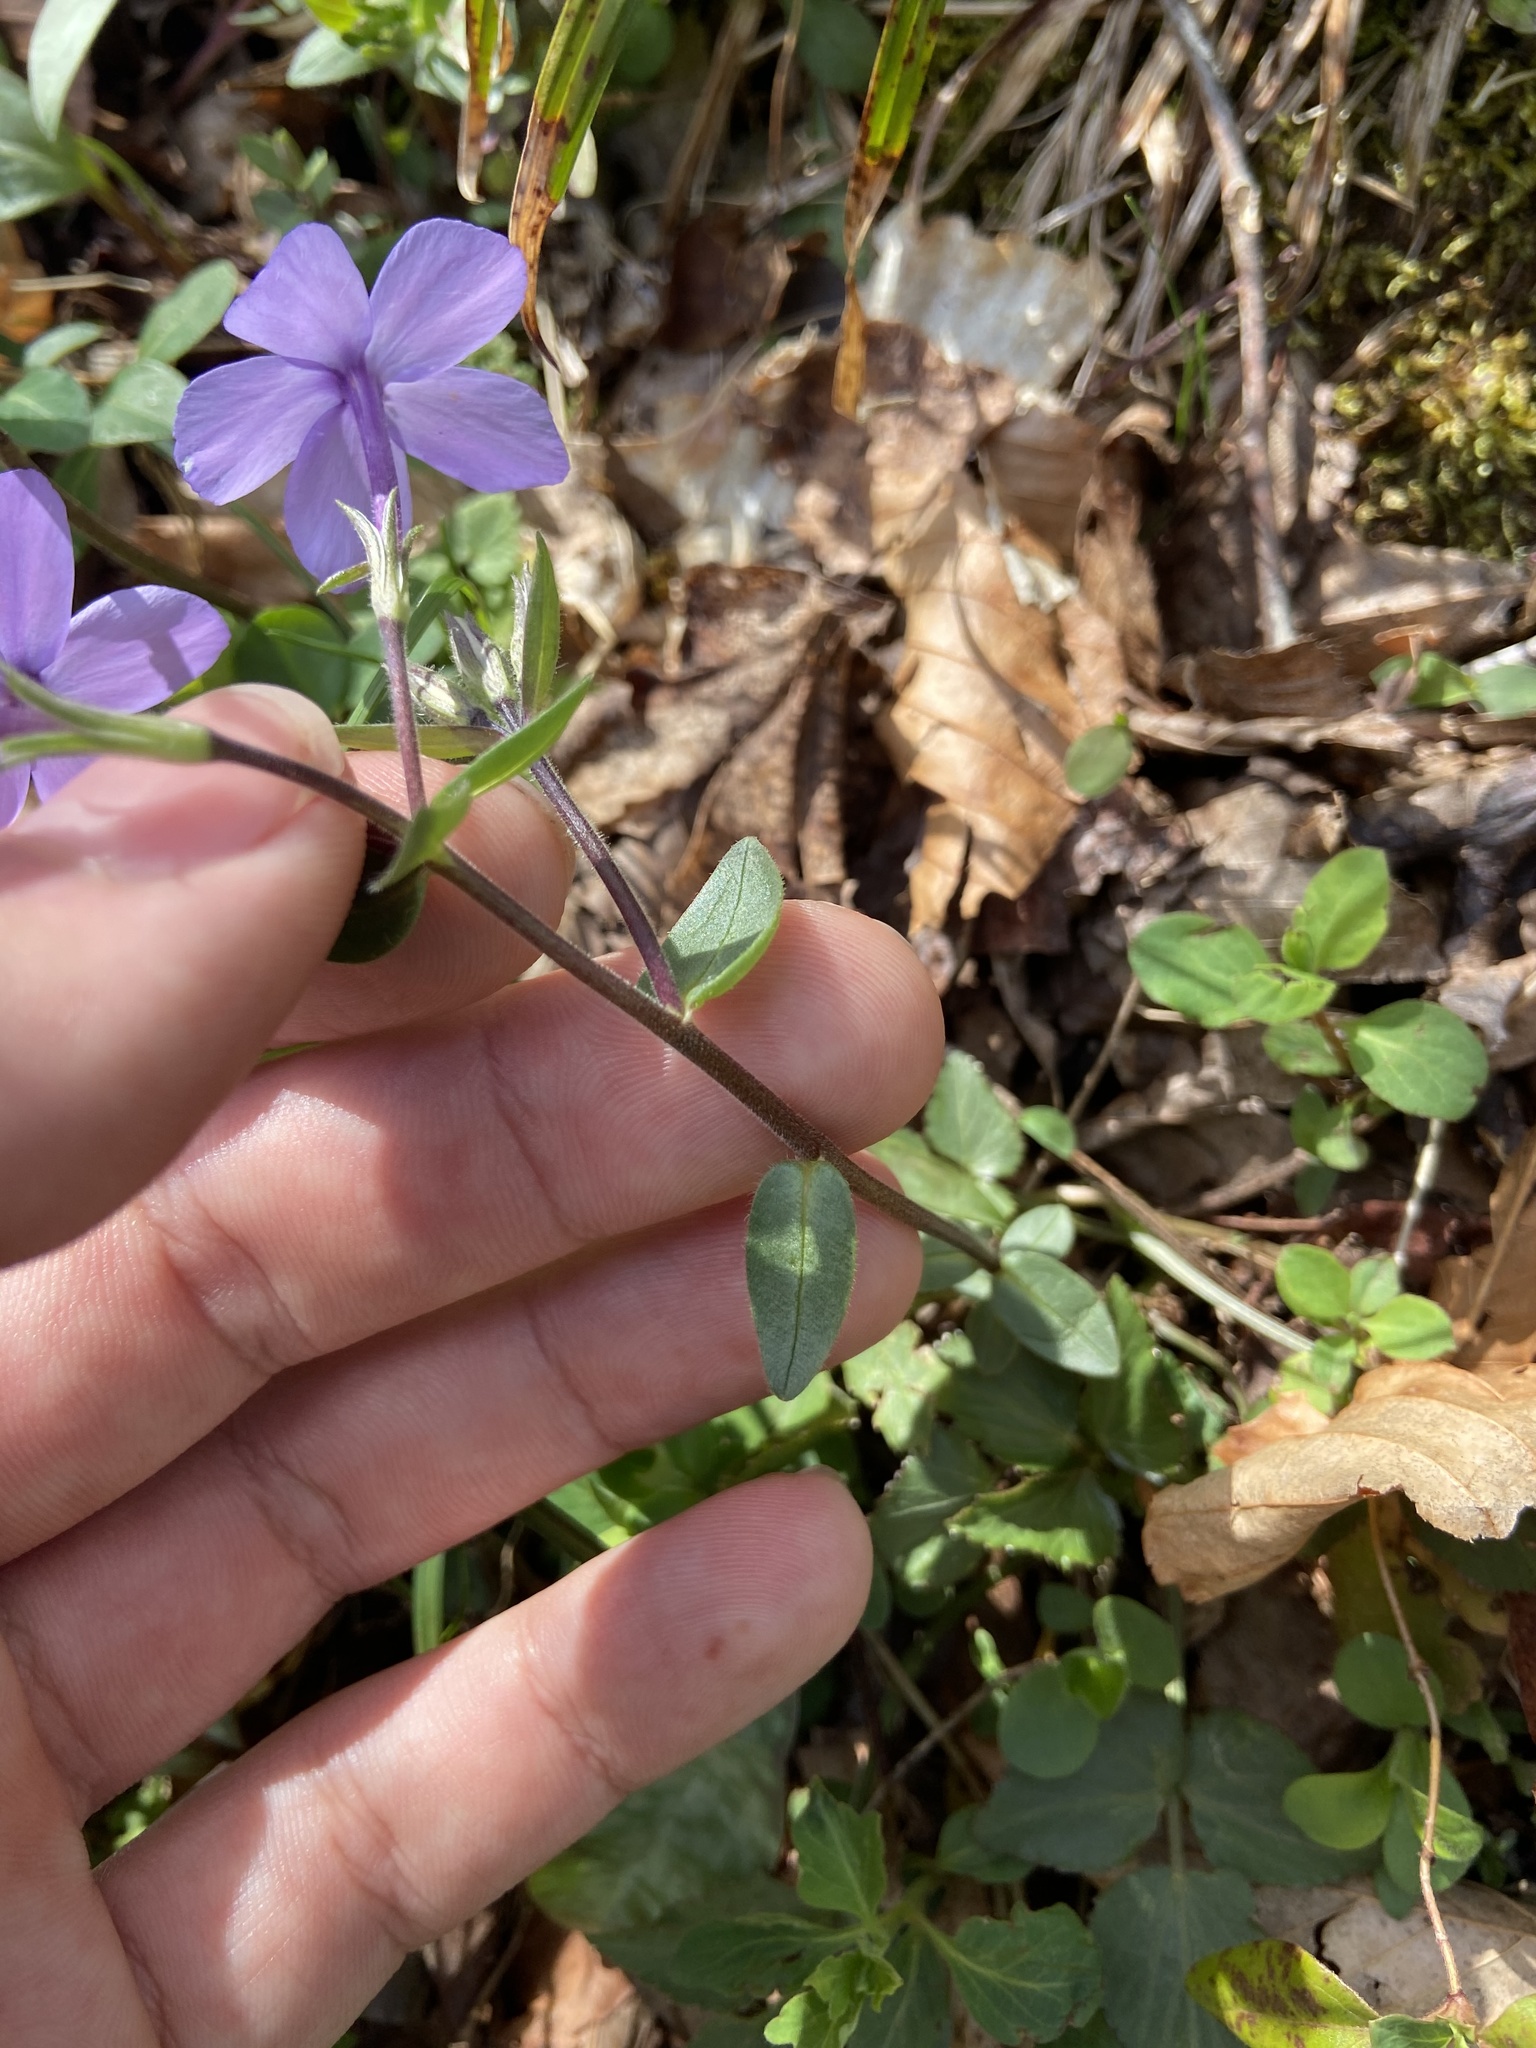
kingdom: Plantae
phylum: Tracheophyta
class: Magnoliopsida
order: Ericales
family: Polemoniaceae
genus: Phlox
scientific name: Phlox stolonifera
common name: Creeping phlox
